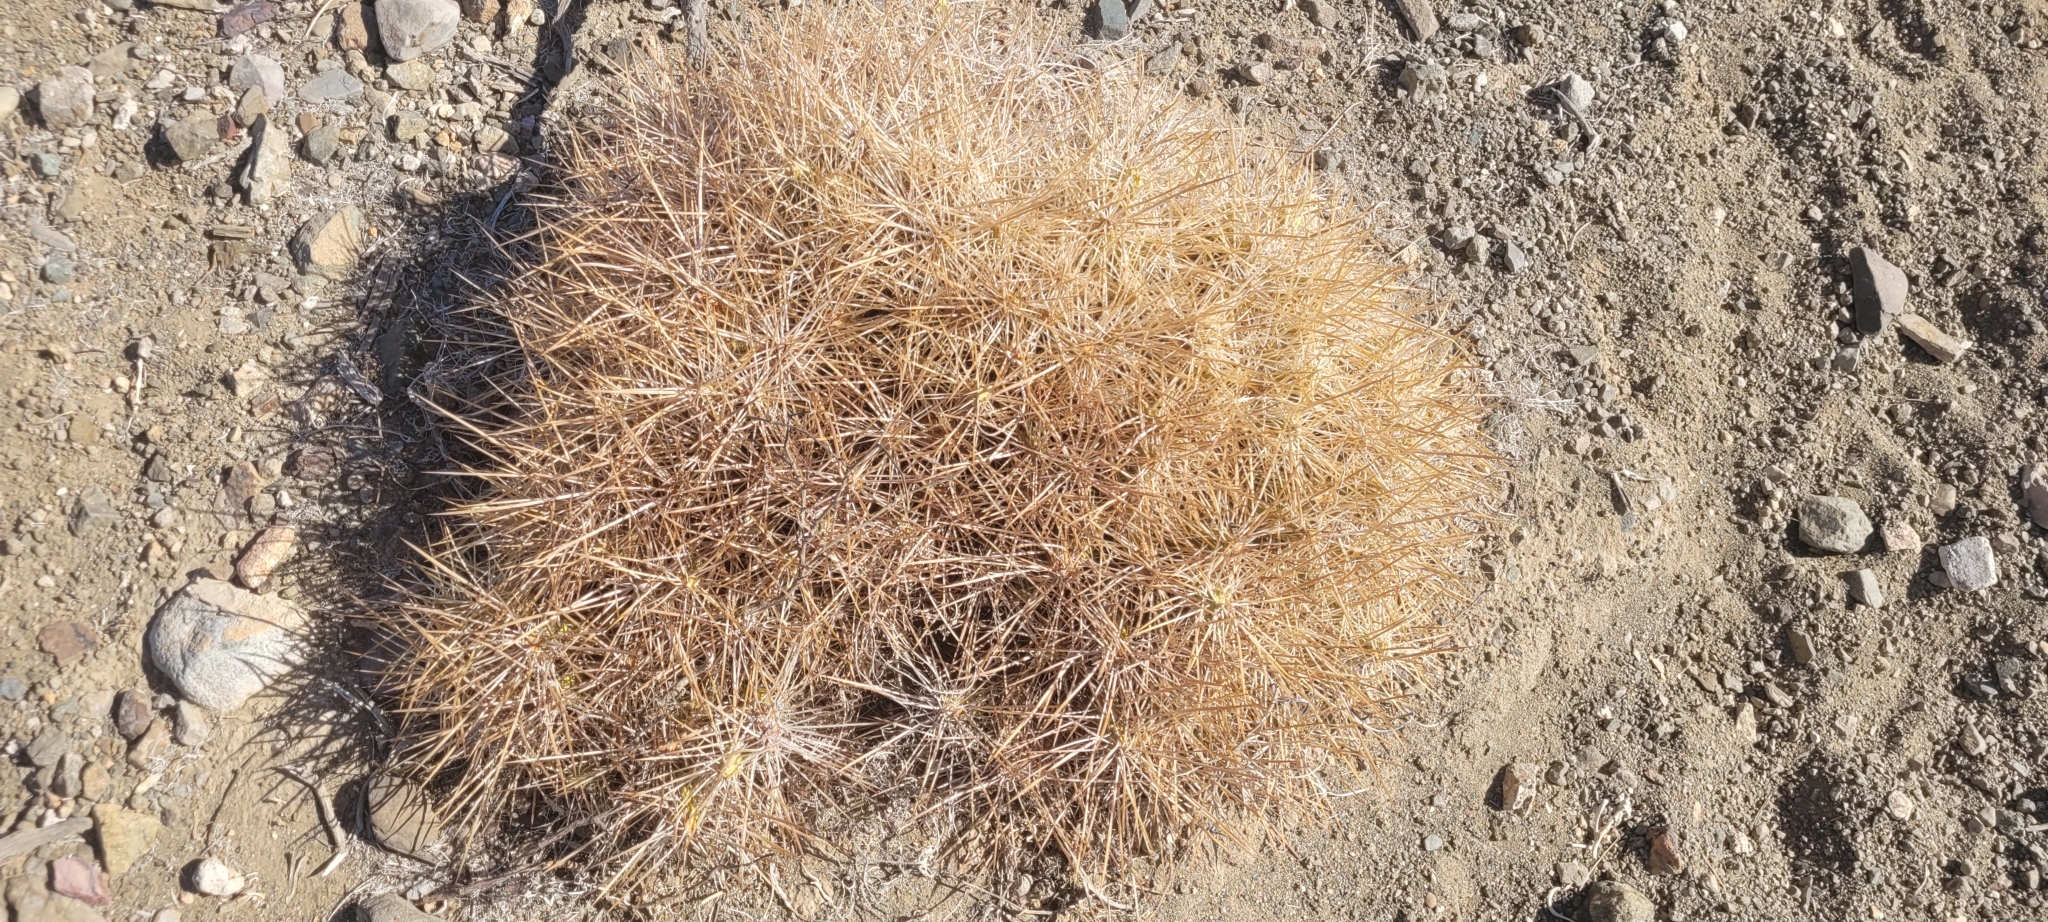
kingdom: Plantae
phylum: Tracheophyta
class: Magnoliopsida
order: Caryophyllales
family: Cactaceae
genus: Maihueniopsis
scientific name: Maihueniopsis crassispina
